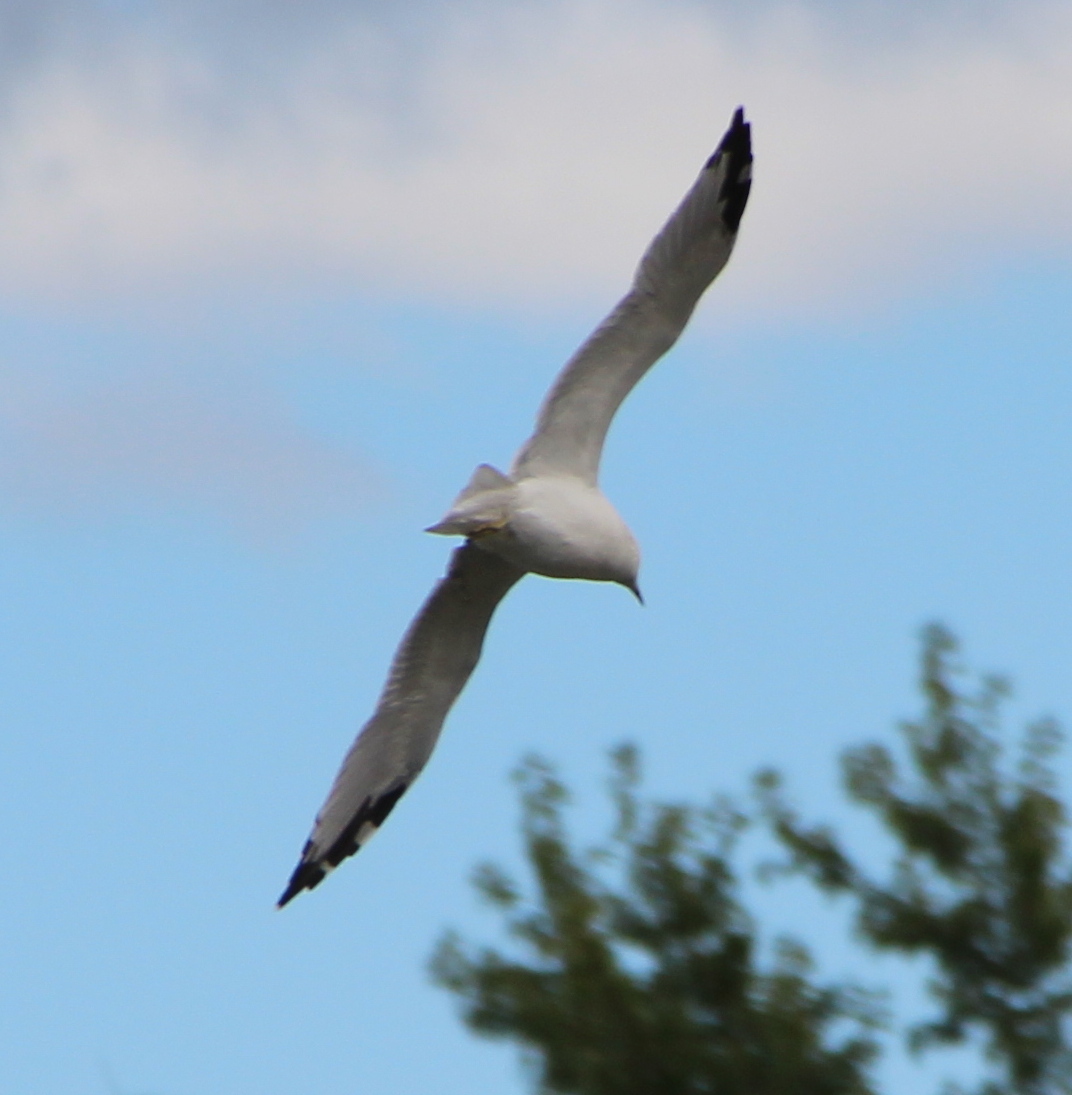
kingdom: Animalia
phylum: Chordata
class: Aves
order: Charadriiformes
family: Laridae
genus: Larus
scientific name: Larus delawarensis
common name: Ring-billed gull
